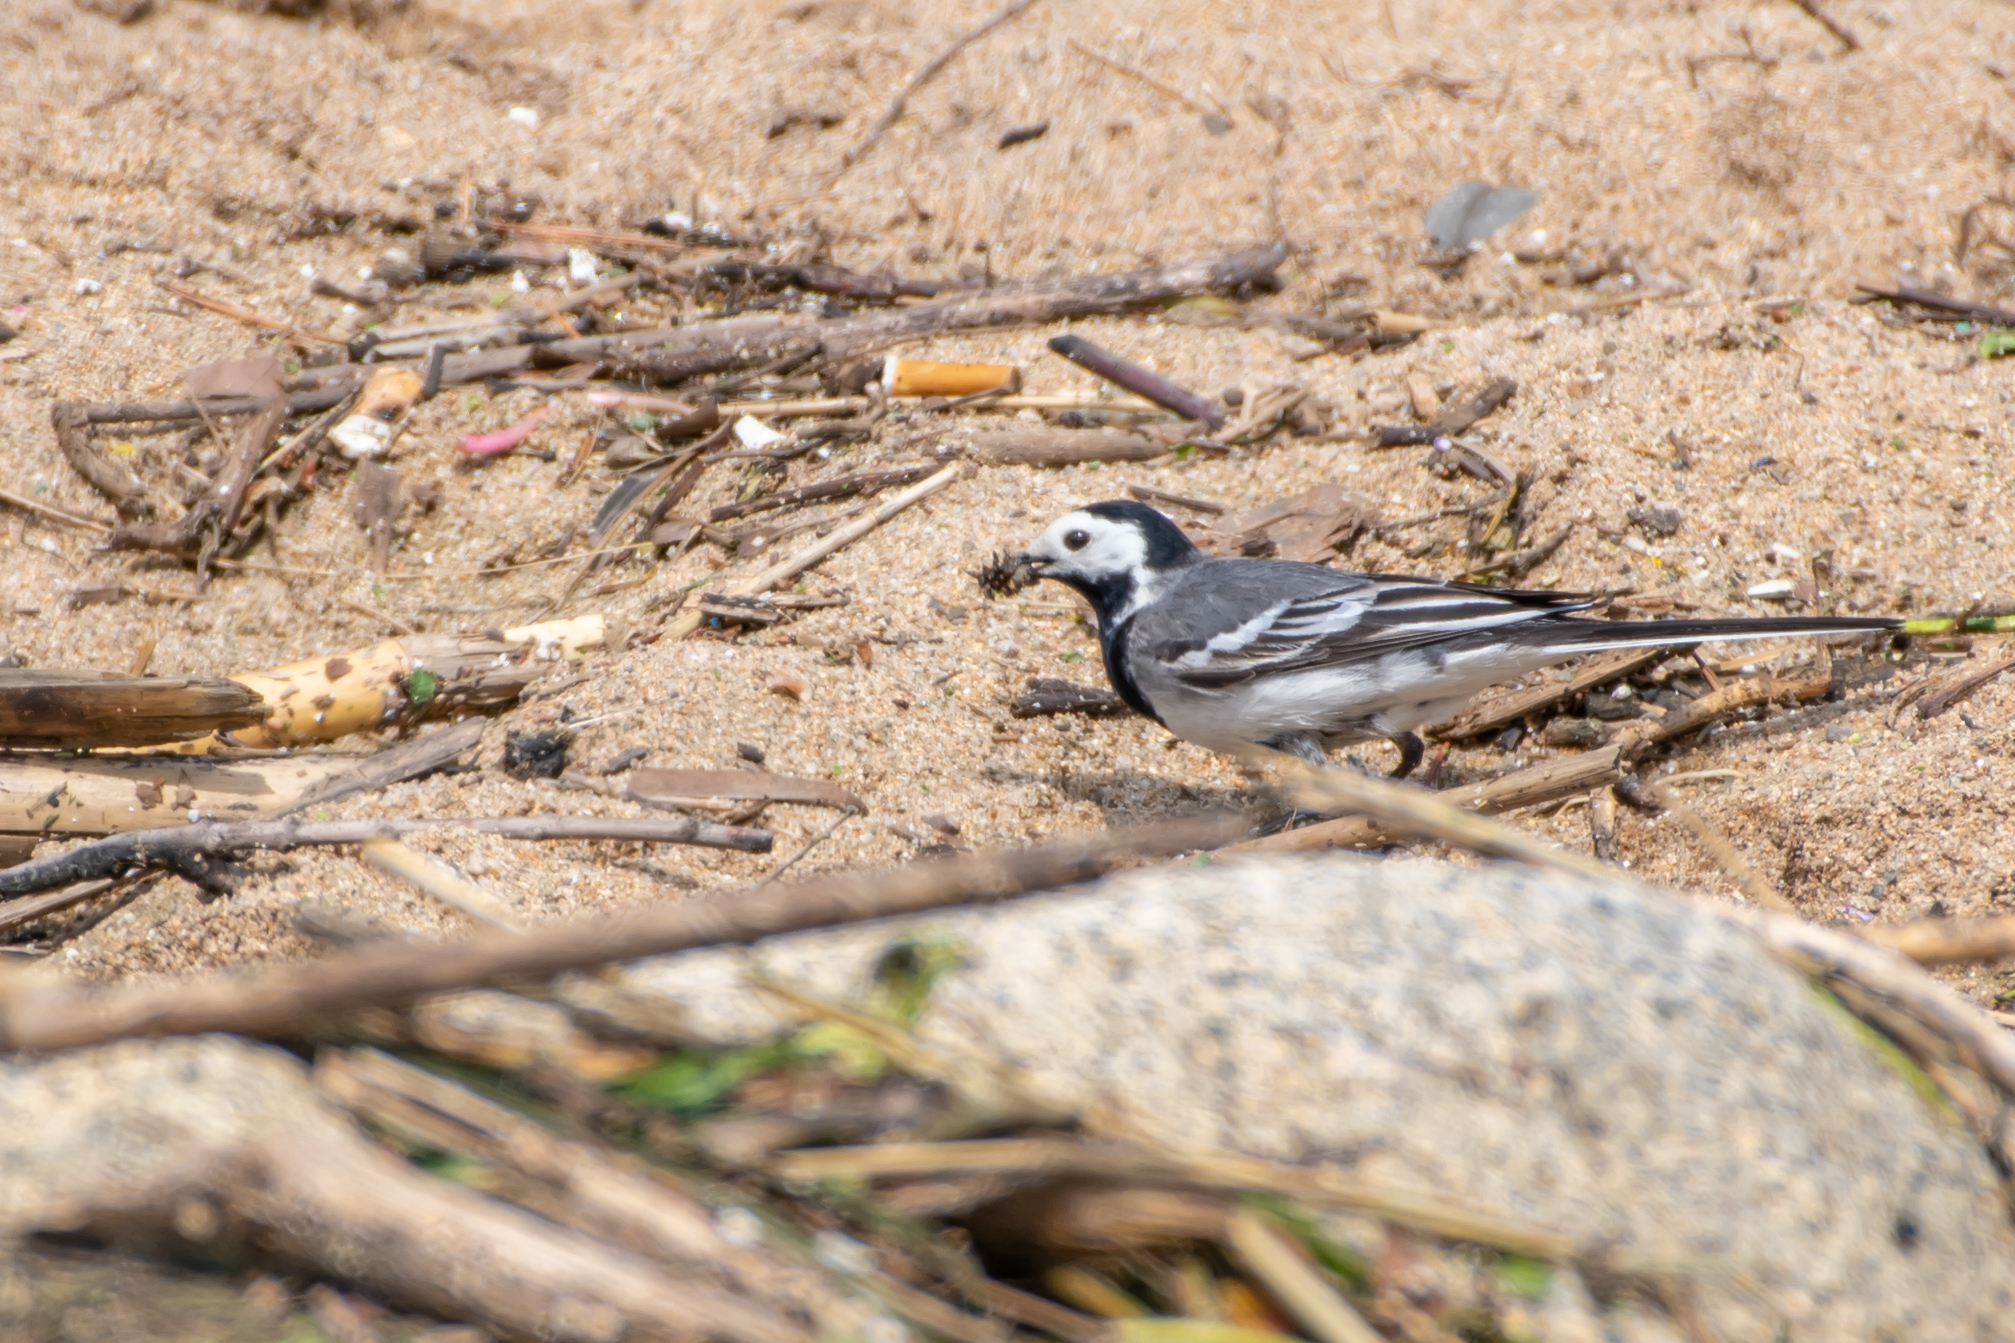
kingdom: Animalia
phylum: Chordata
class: Aves
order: Passeriformes
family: Motacillidae
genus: Motacilla
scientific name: Motacilla alba
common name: White wagtail
